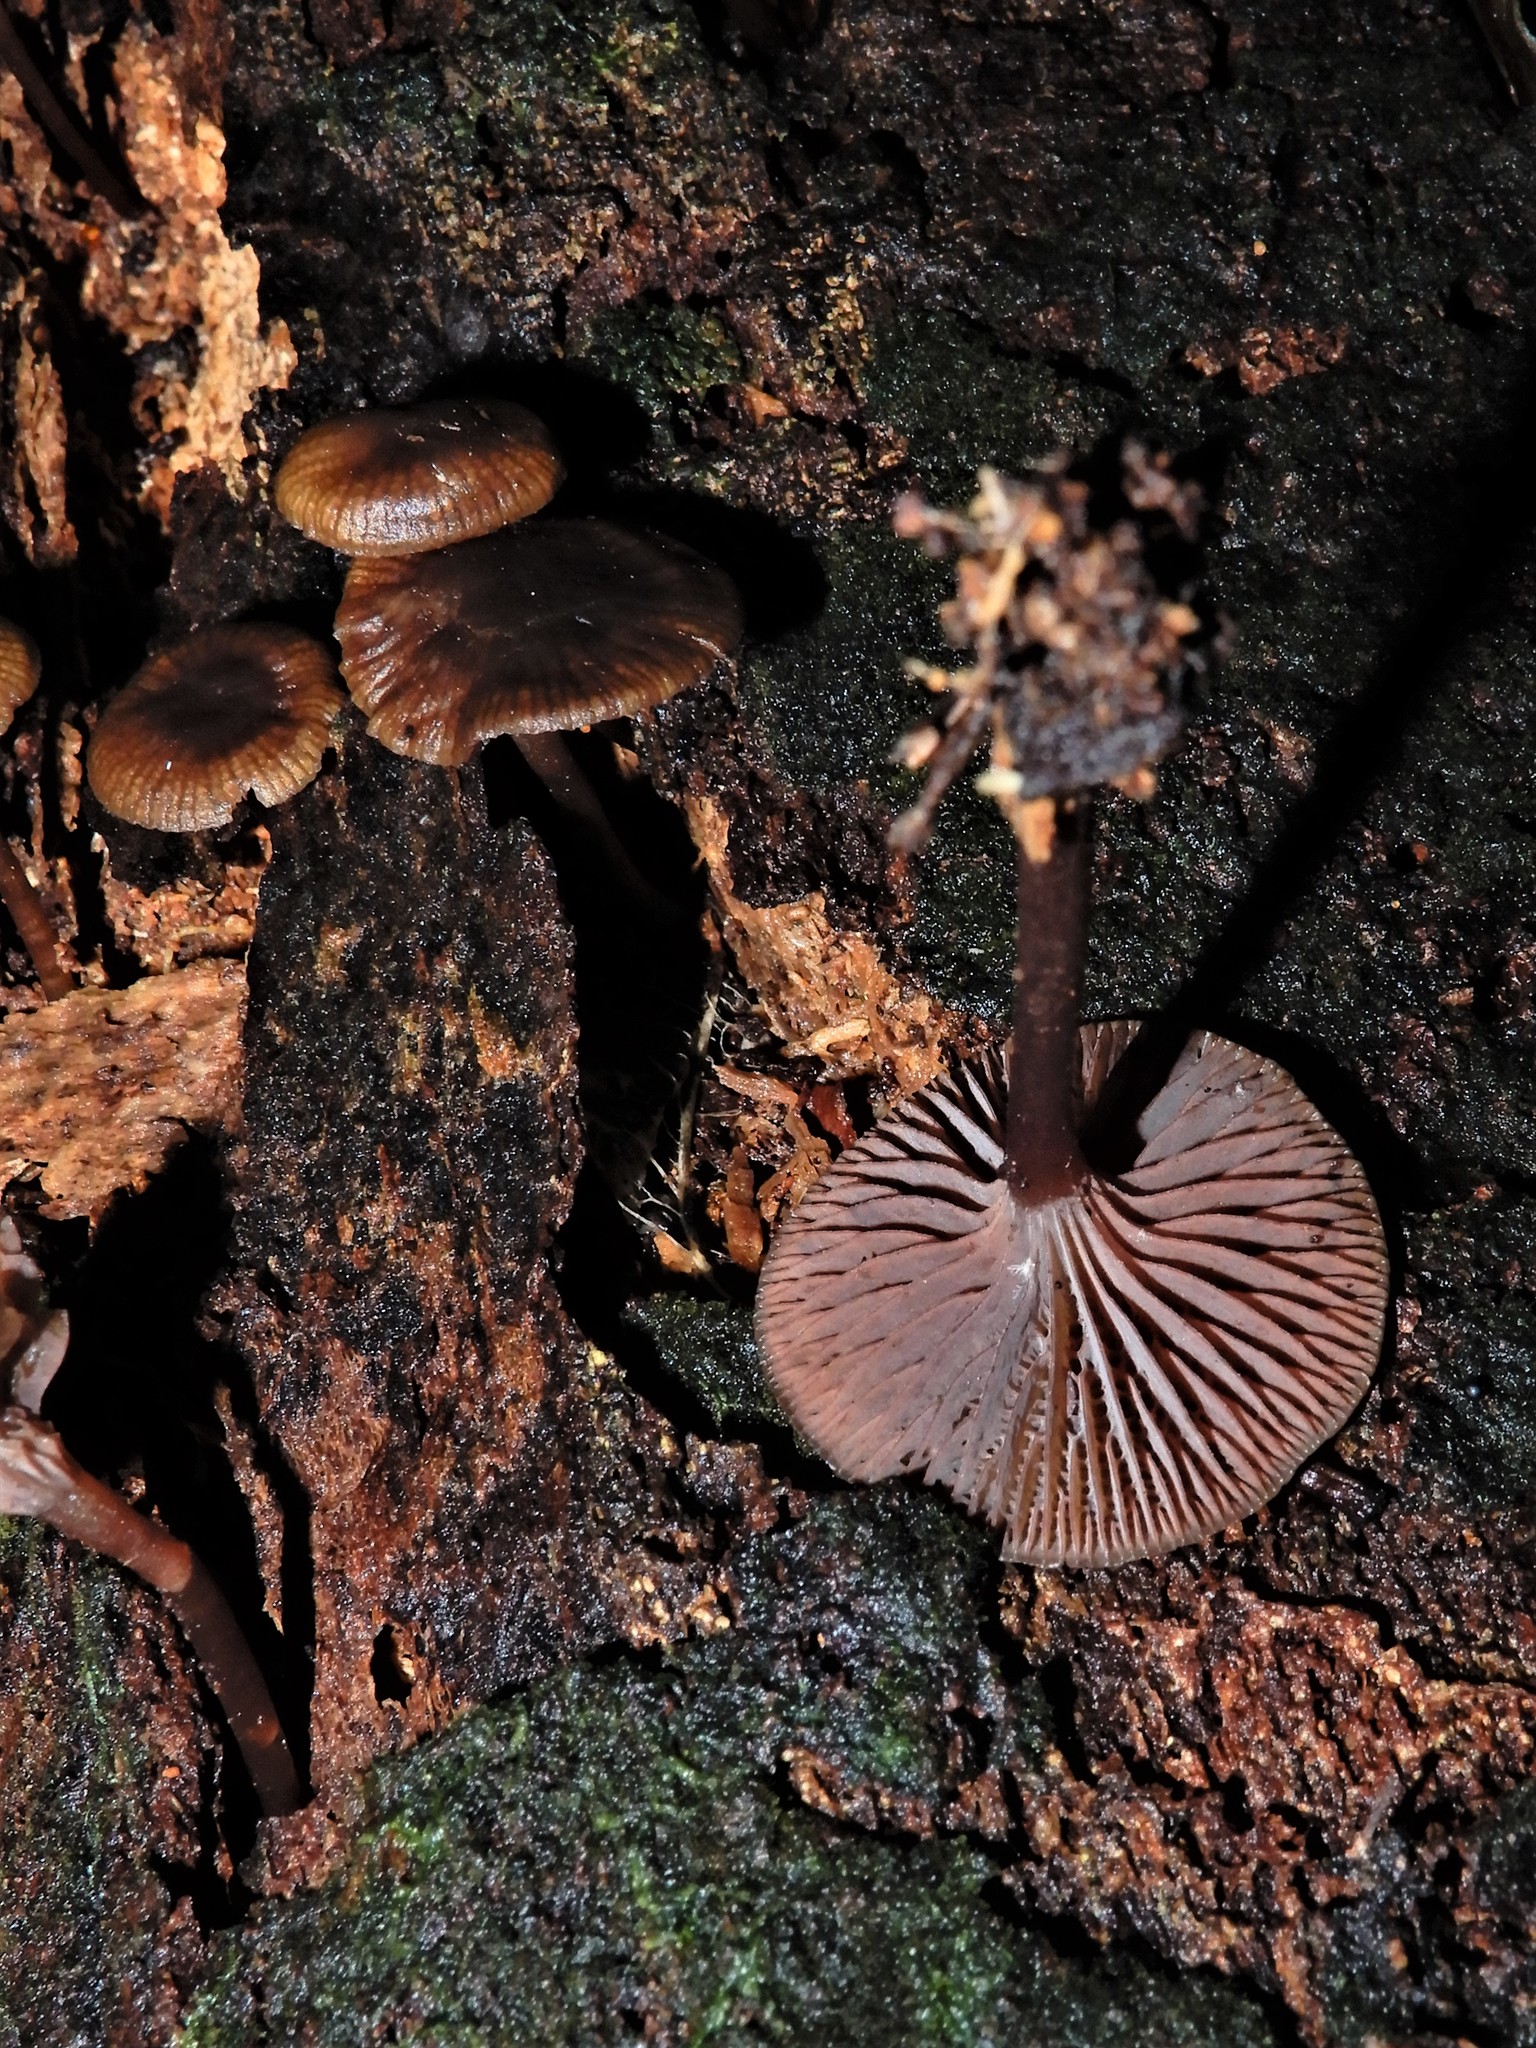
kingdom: Fungi
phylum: Basidiomycota
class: Agaricomycetes
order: Agaricales
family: Mycenaceae
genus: Mycena
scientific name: Mycena
